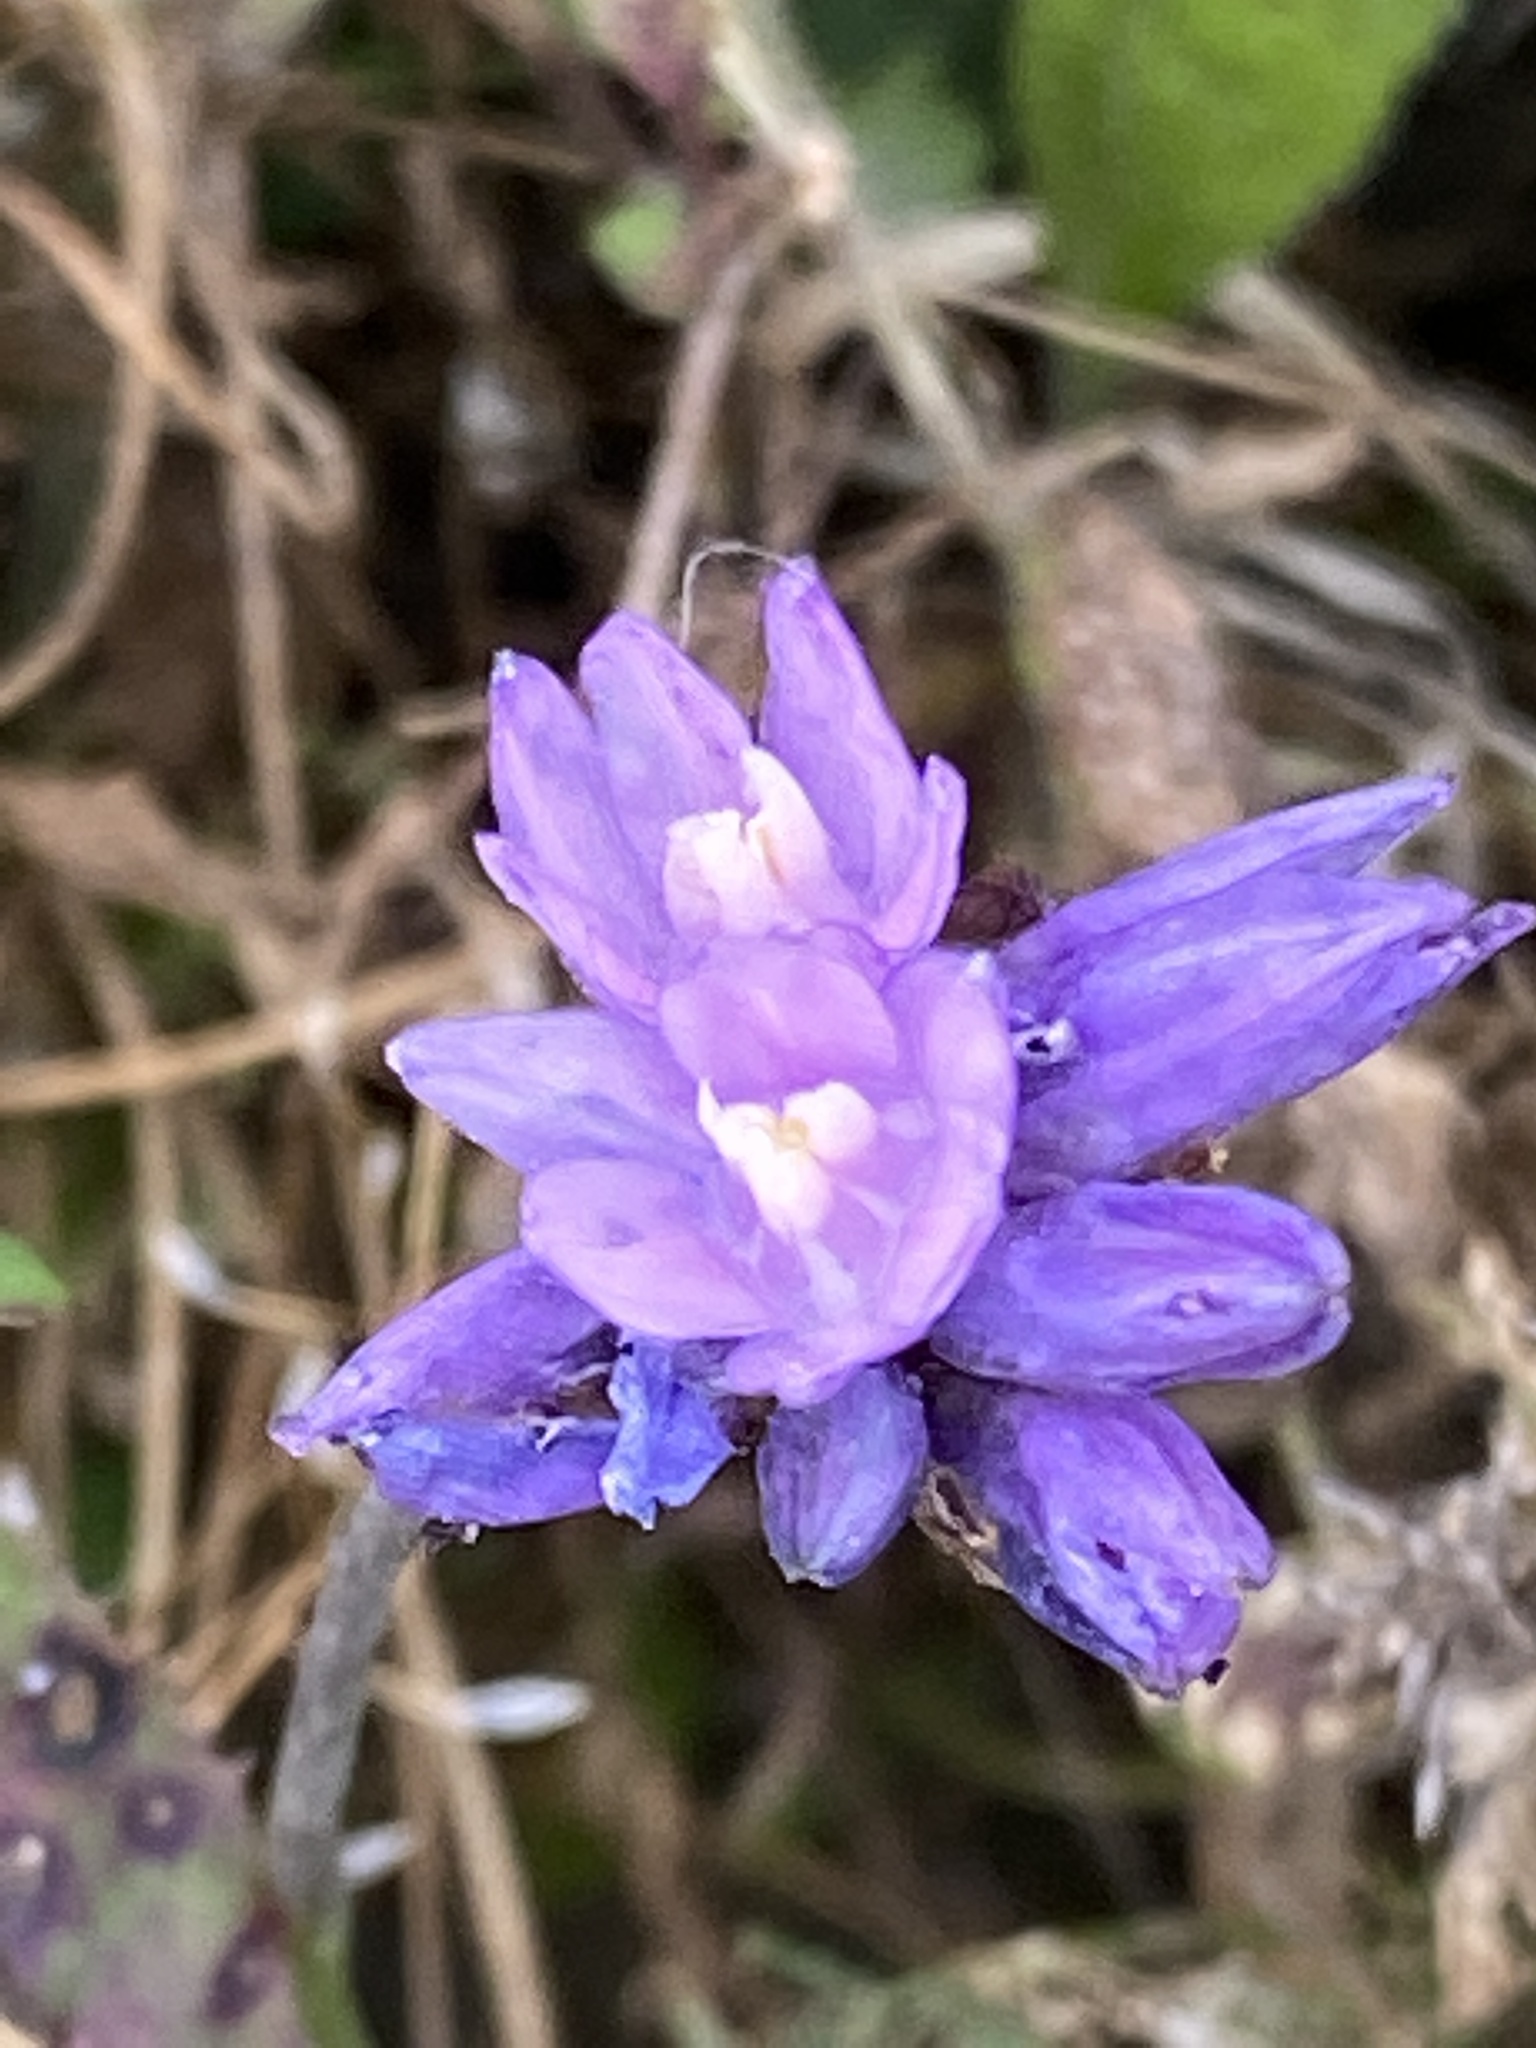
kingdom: Plantae
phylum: Tracheophyta
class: Liliopsida
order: Asparagales
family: Asparagaceae
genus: Dipterostemon
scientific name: Dipterostemon capitatus
